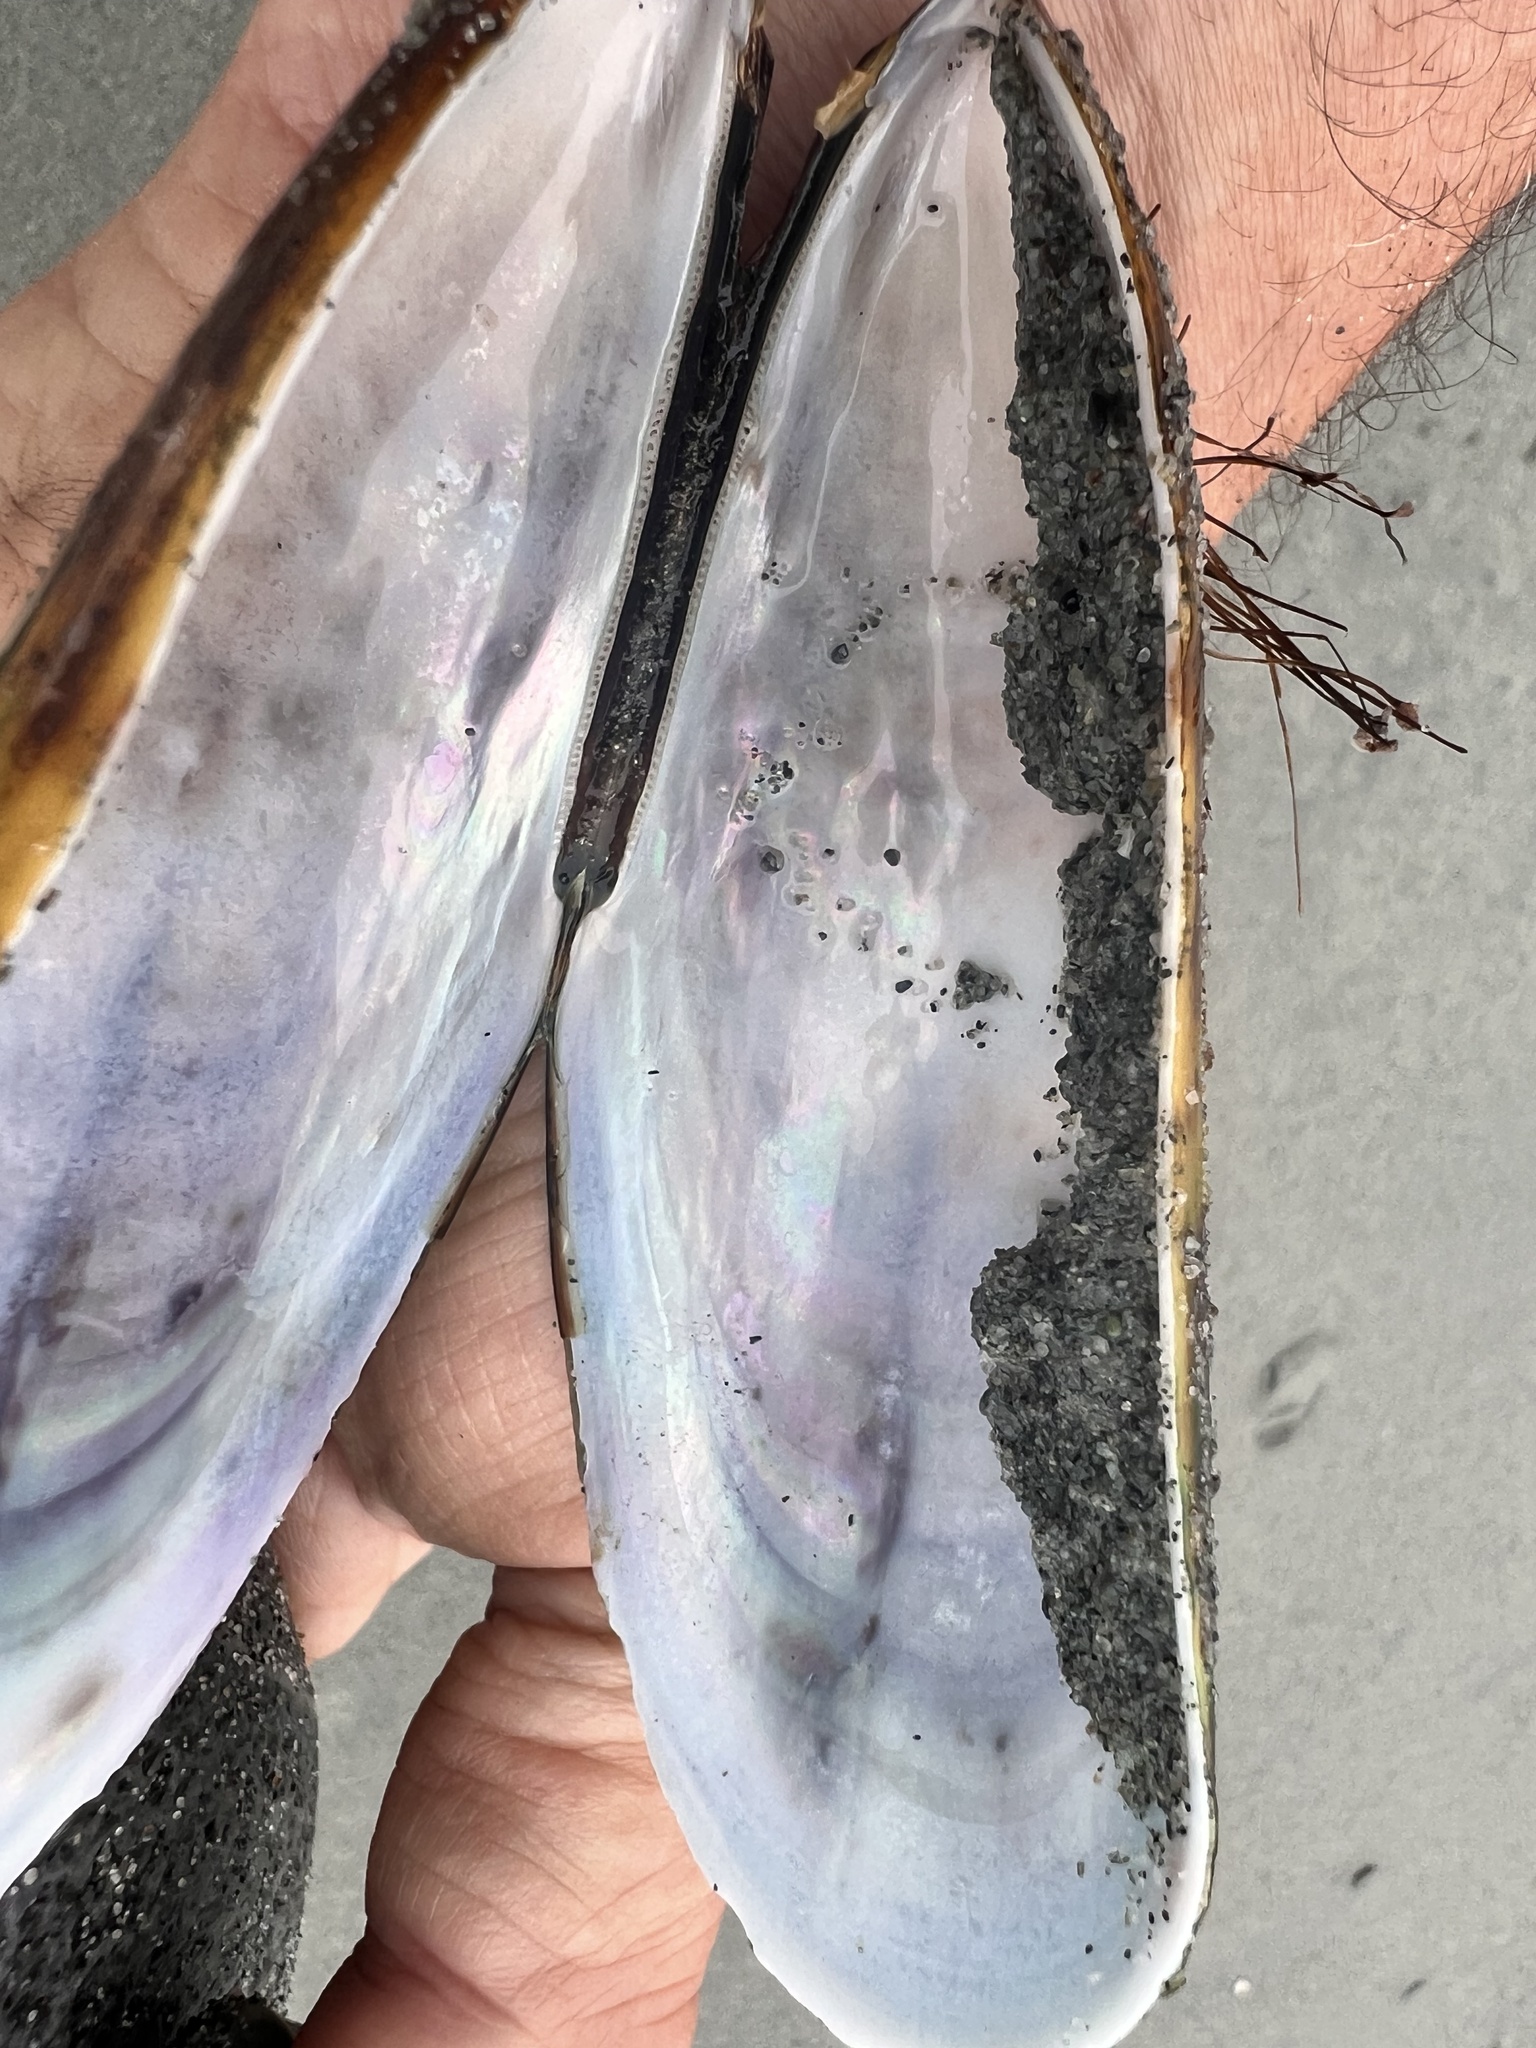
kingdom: Animalia
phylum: Mollusca
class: Bivalvia
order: Mytilida
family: Mytilidae
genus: Perna
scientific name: Perna canaliculus
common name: New zealand greenshelltm
